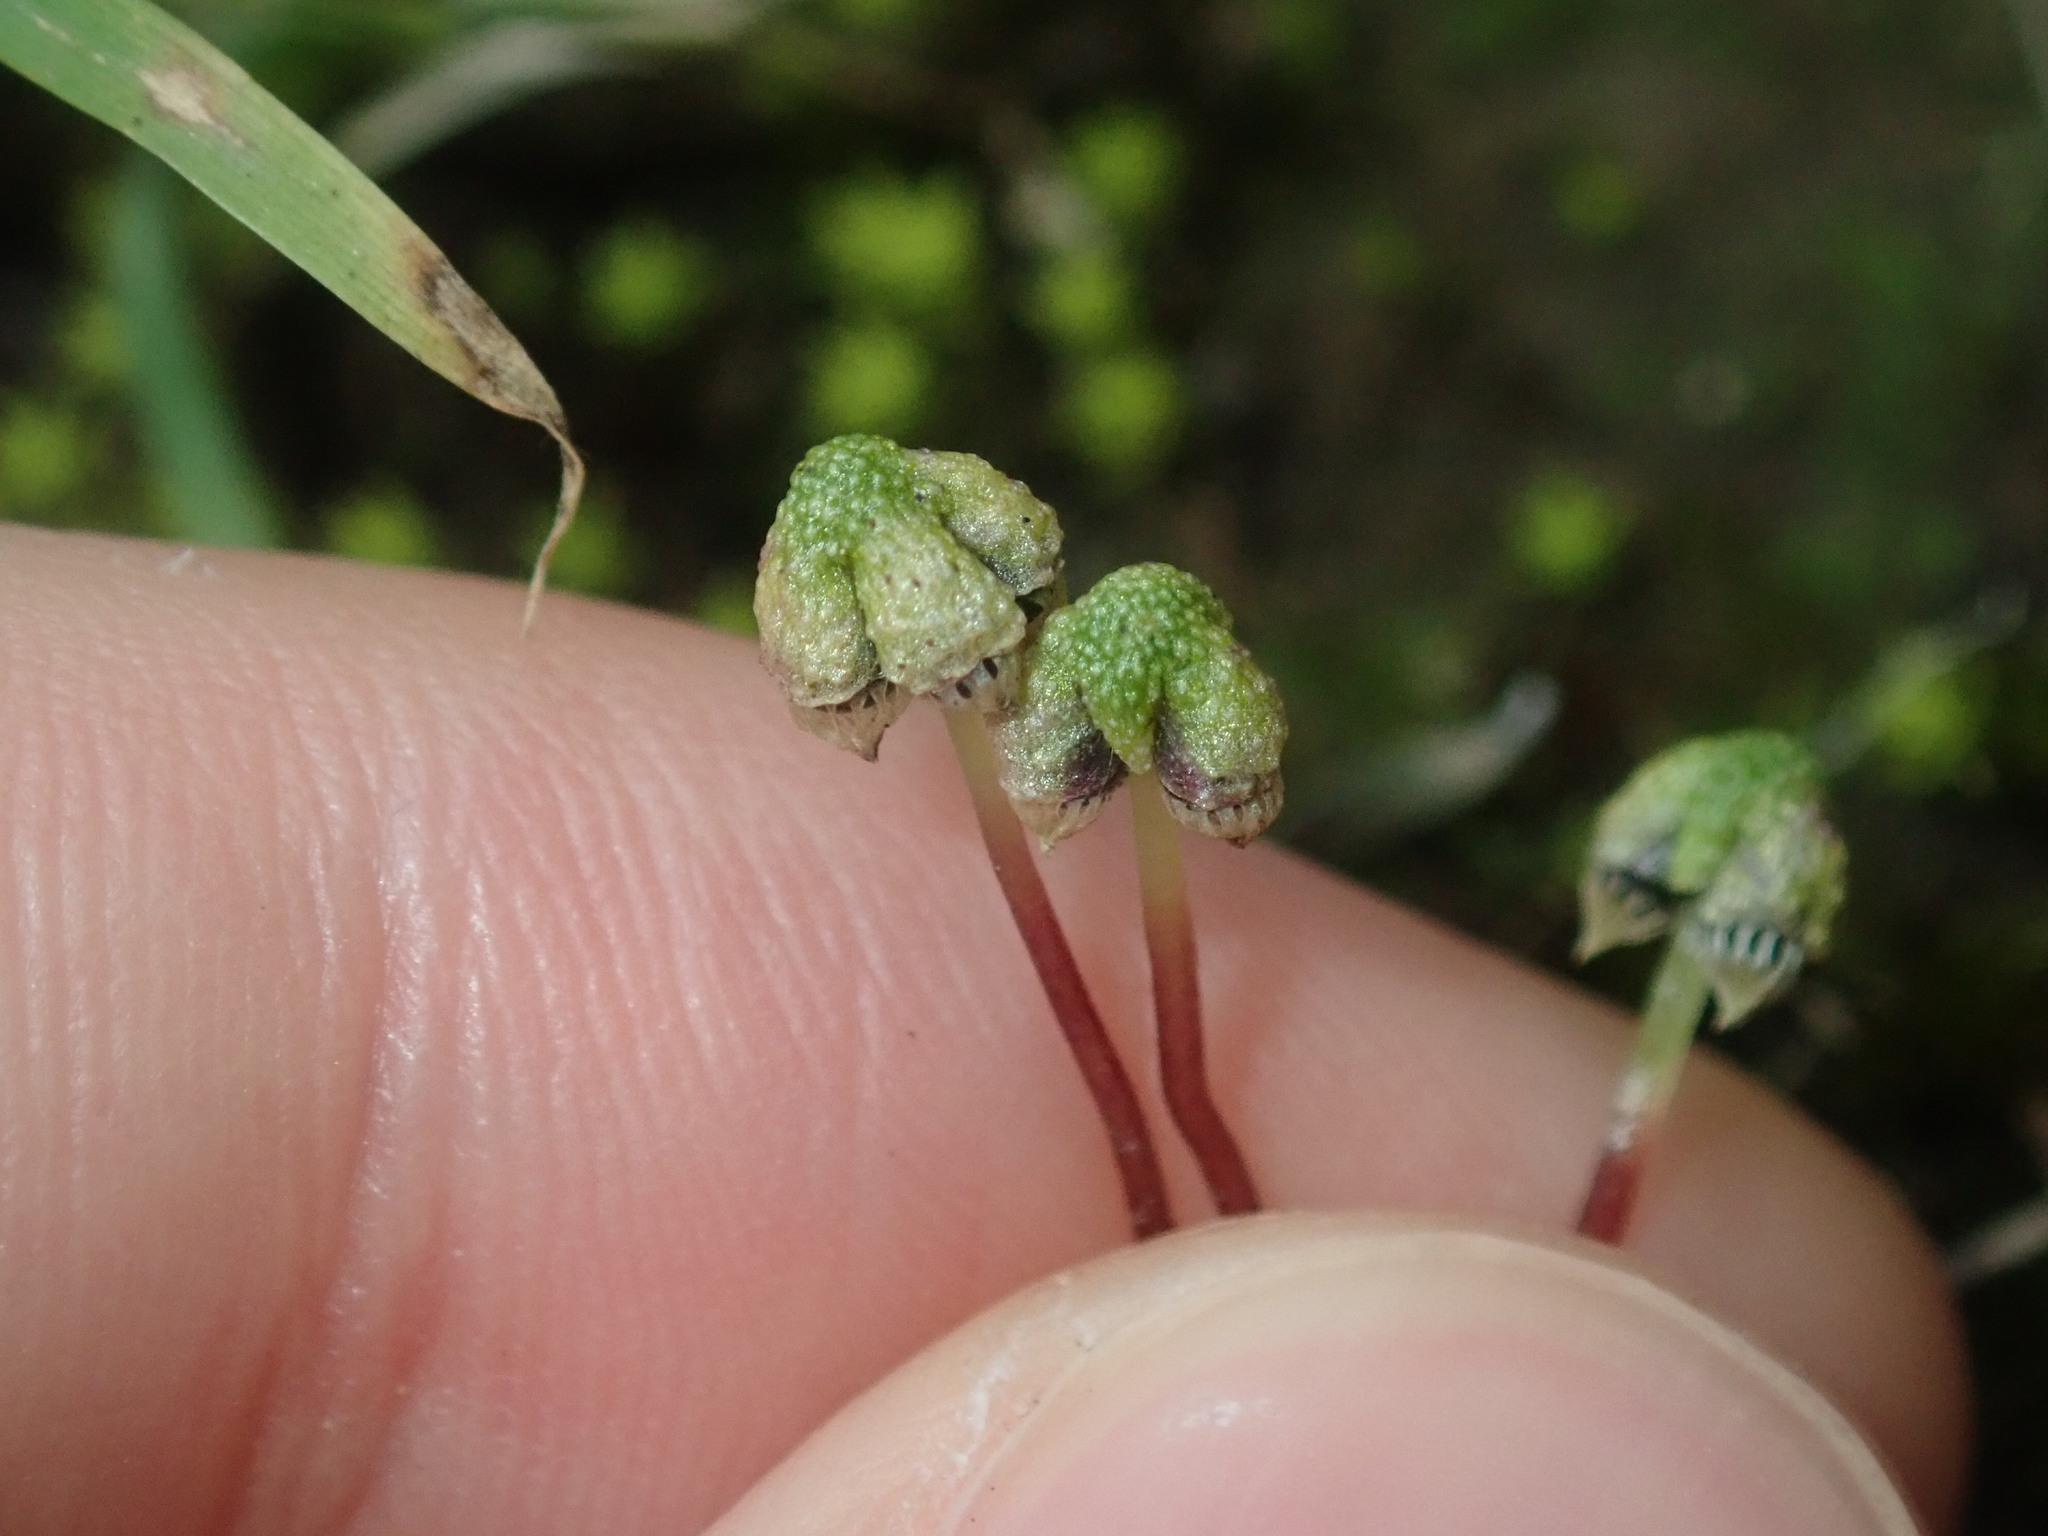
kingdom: Plantae
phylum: Marchantiophyta
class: Marchantiopsida
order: Marchantiales
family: Aytoniaceae
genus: Asterella
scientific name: Asterella drummondii
